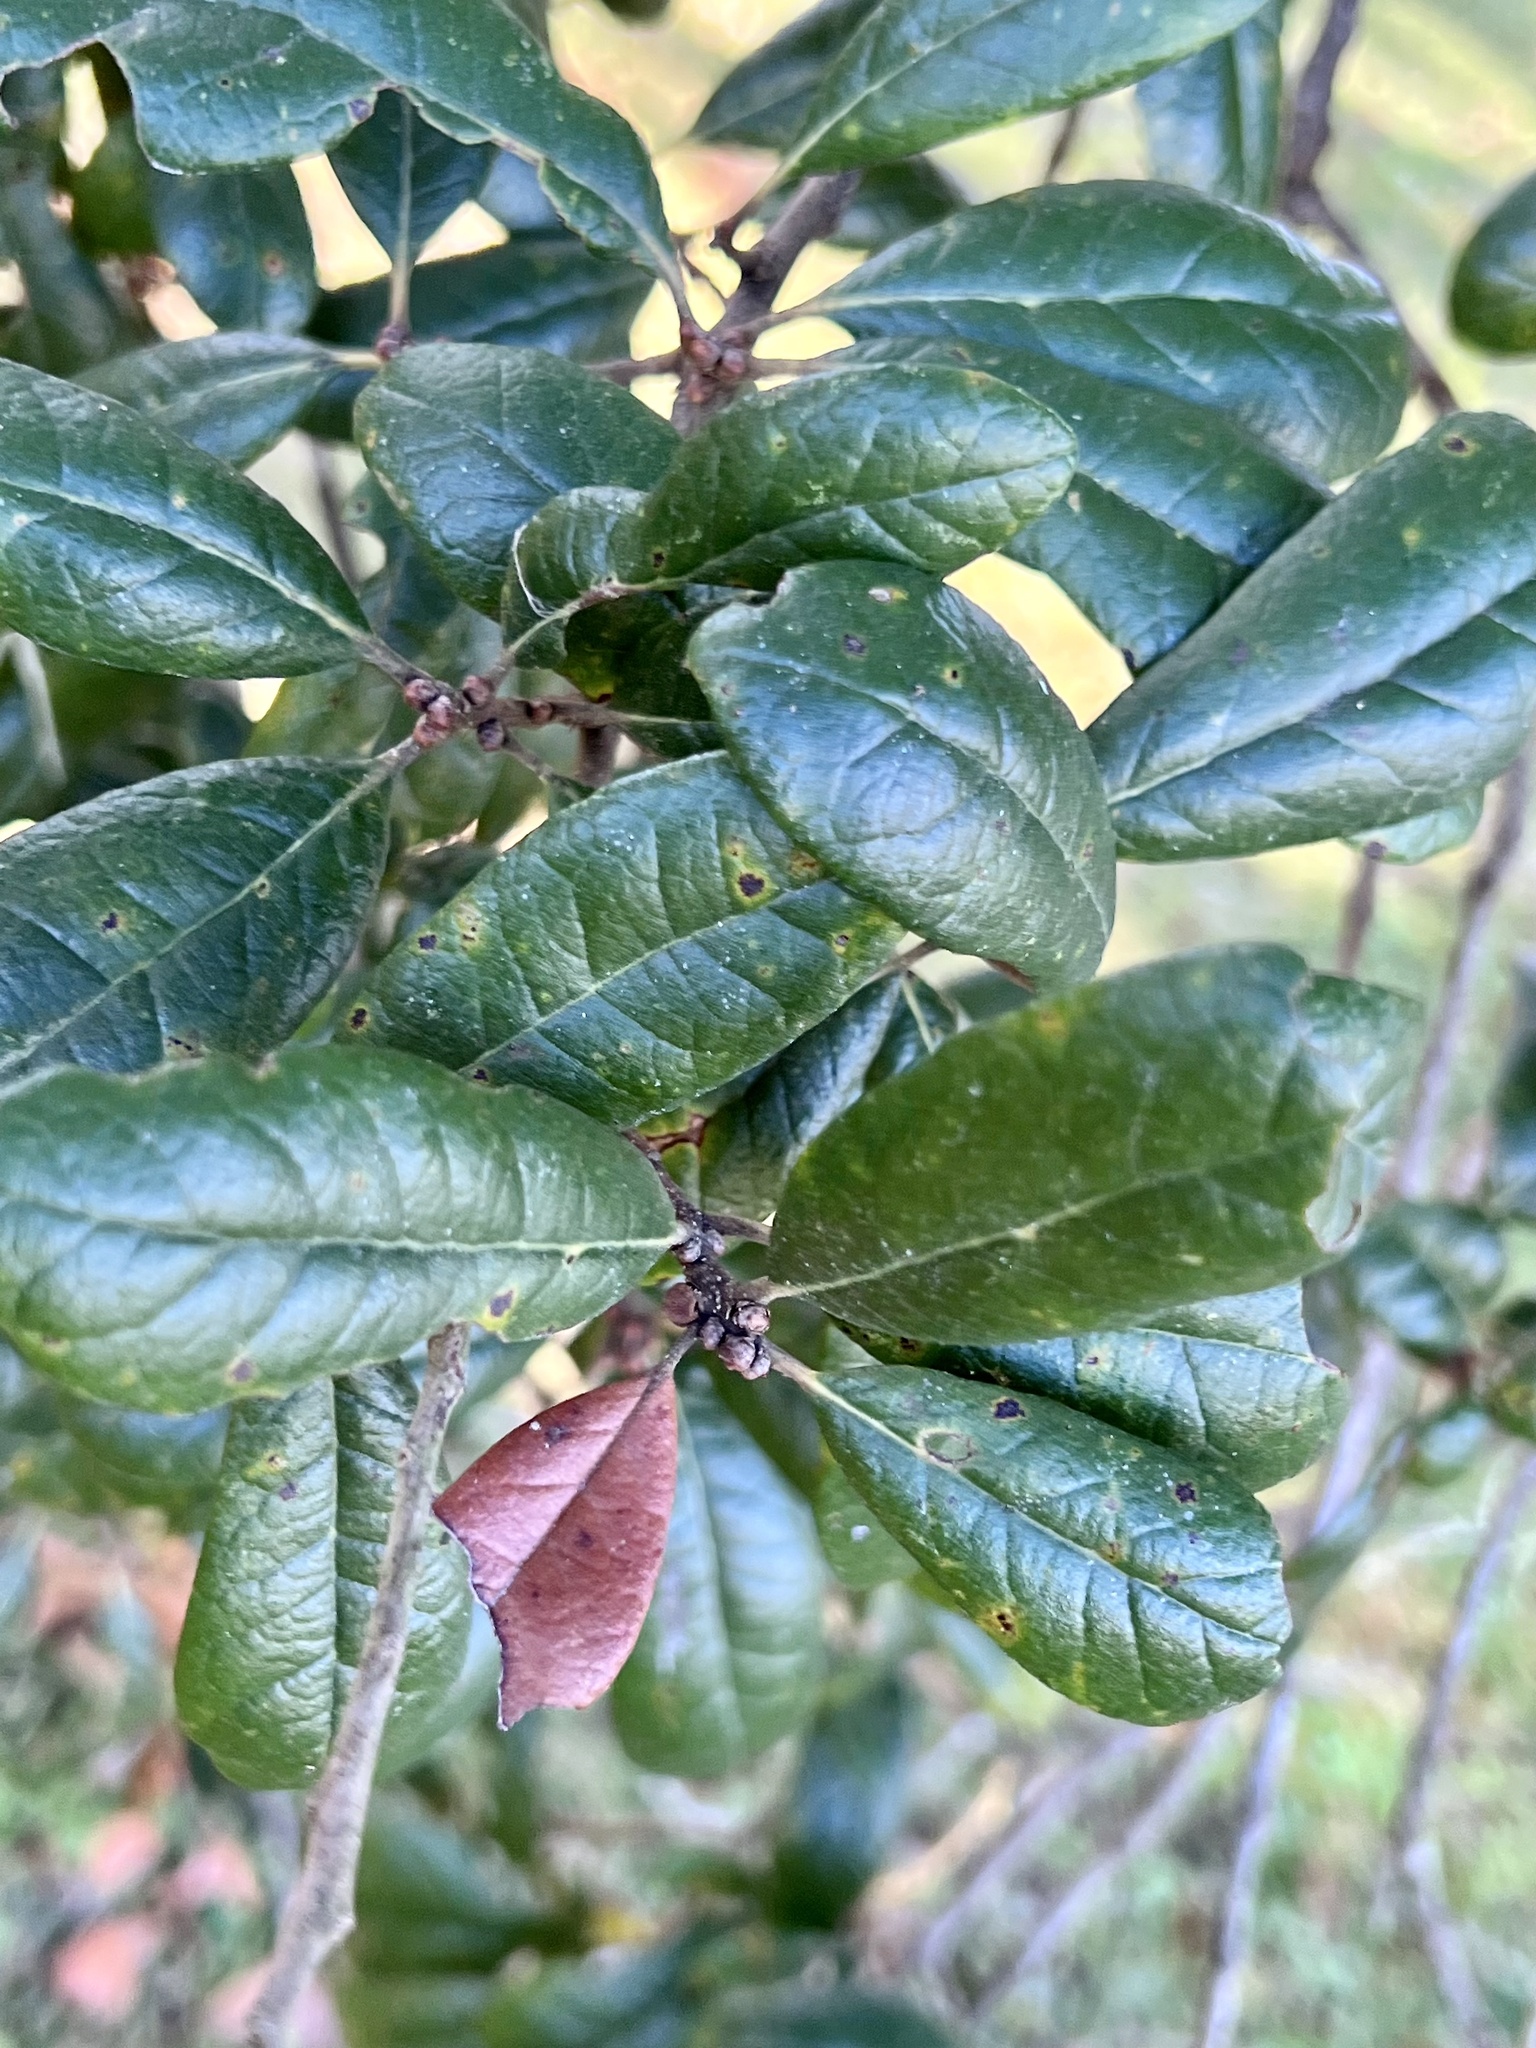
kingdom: Plantae
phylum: Tracheophyta
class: Magnoliopsida
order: Fagales
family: Fagaceae
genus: Quercus
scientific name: Quercus virginiana
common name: Southern live oak
